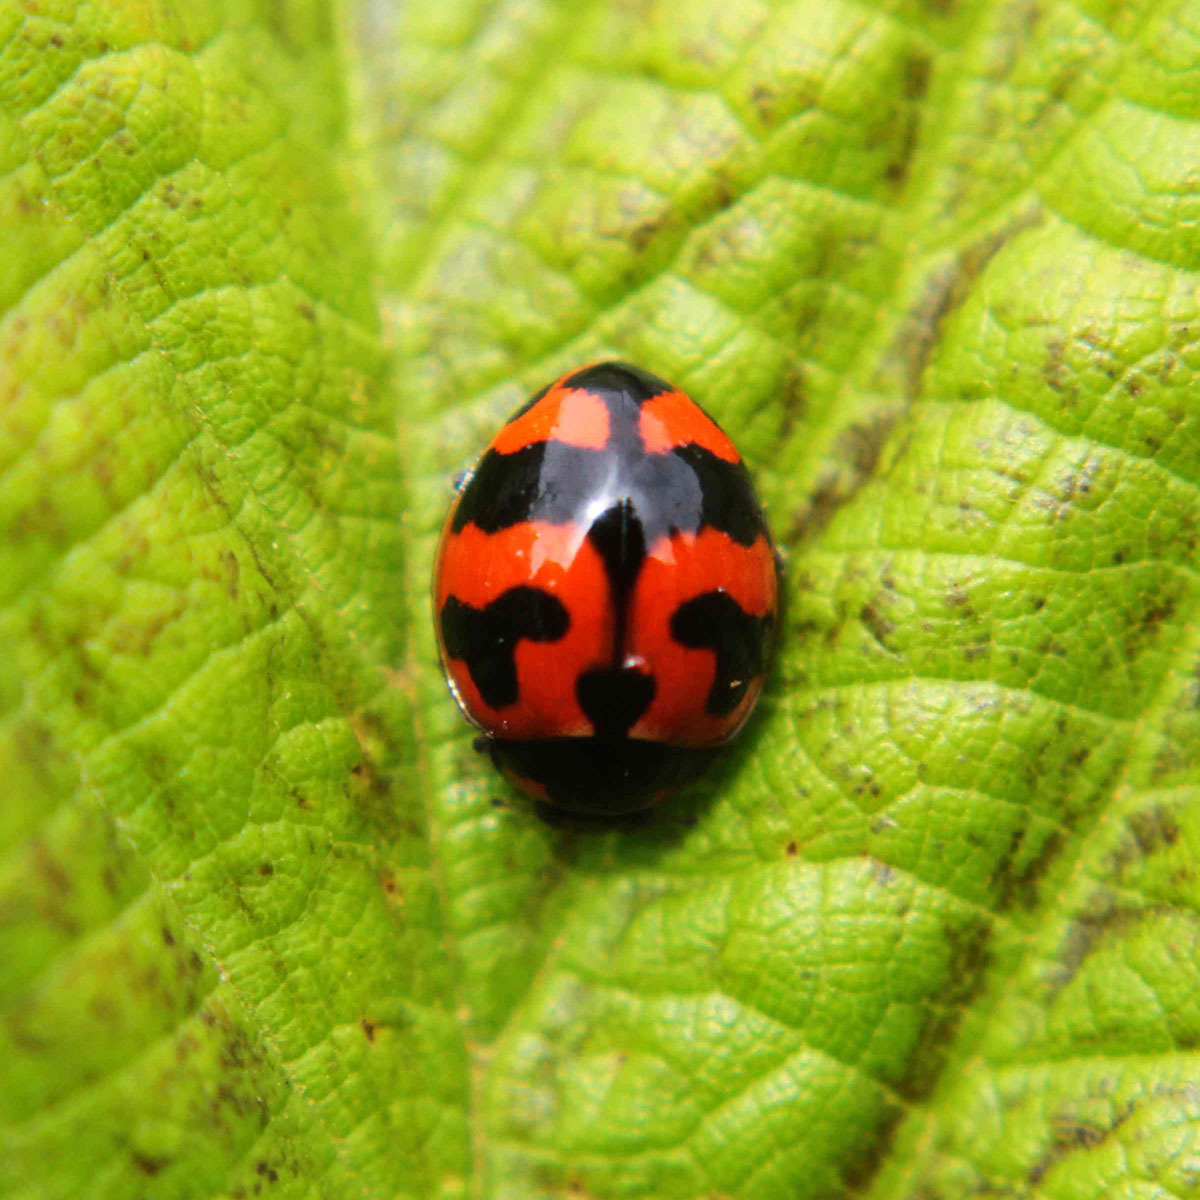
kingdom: Animalia
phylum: Arthropoda
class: Insecta
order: Coleoptera
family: Coccinellidae
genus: Coccinella
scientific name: Coccinella transversalis
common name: Transverse lady beetle
